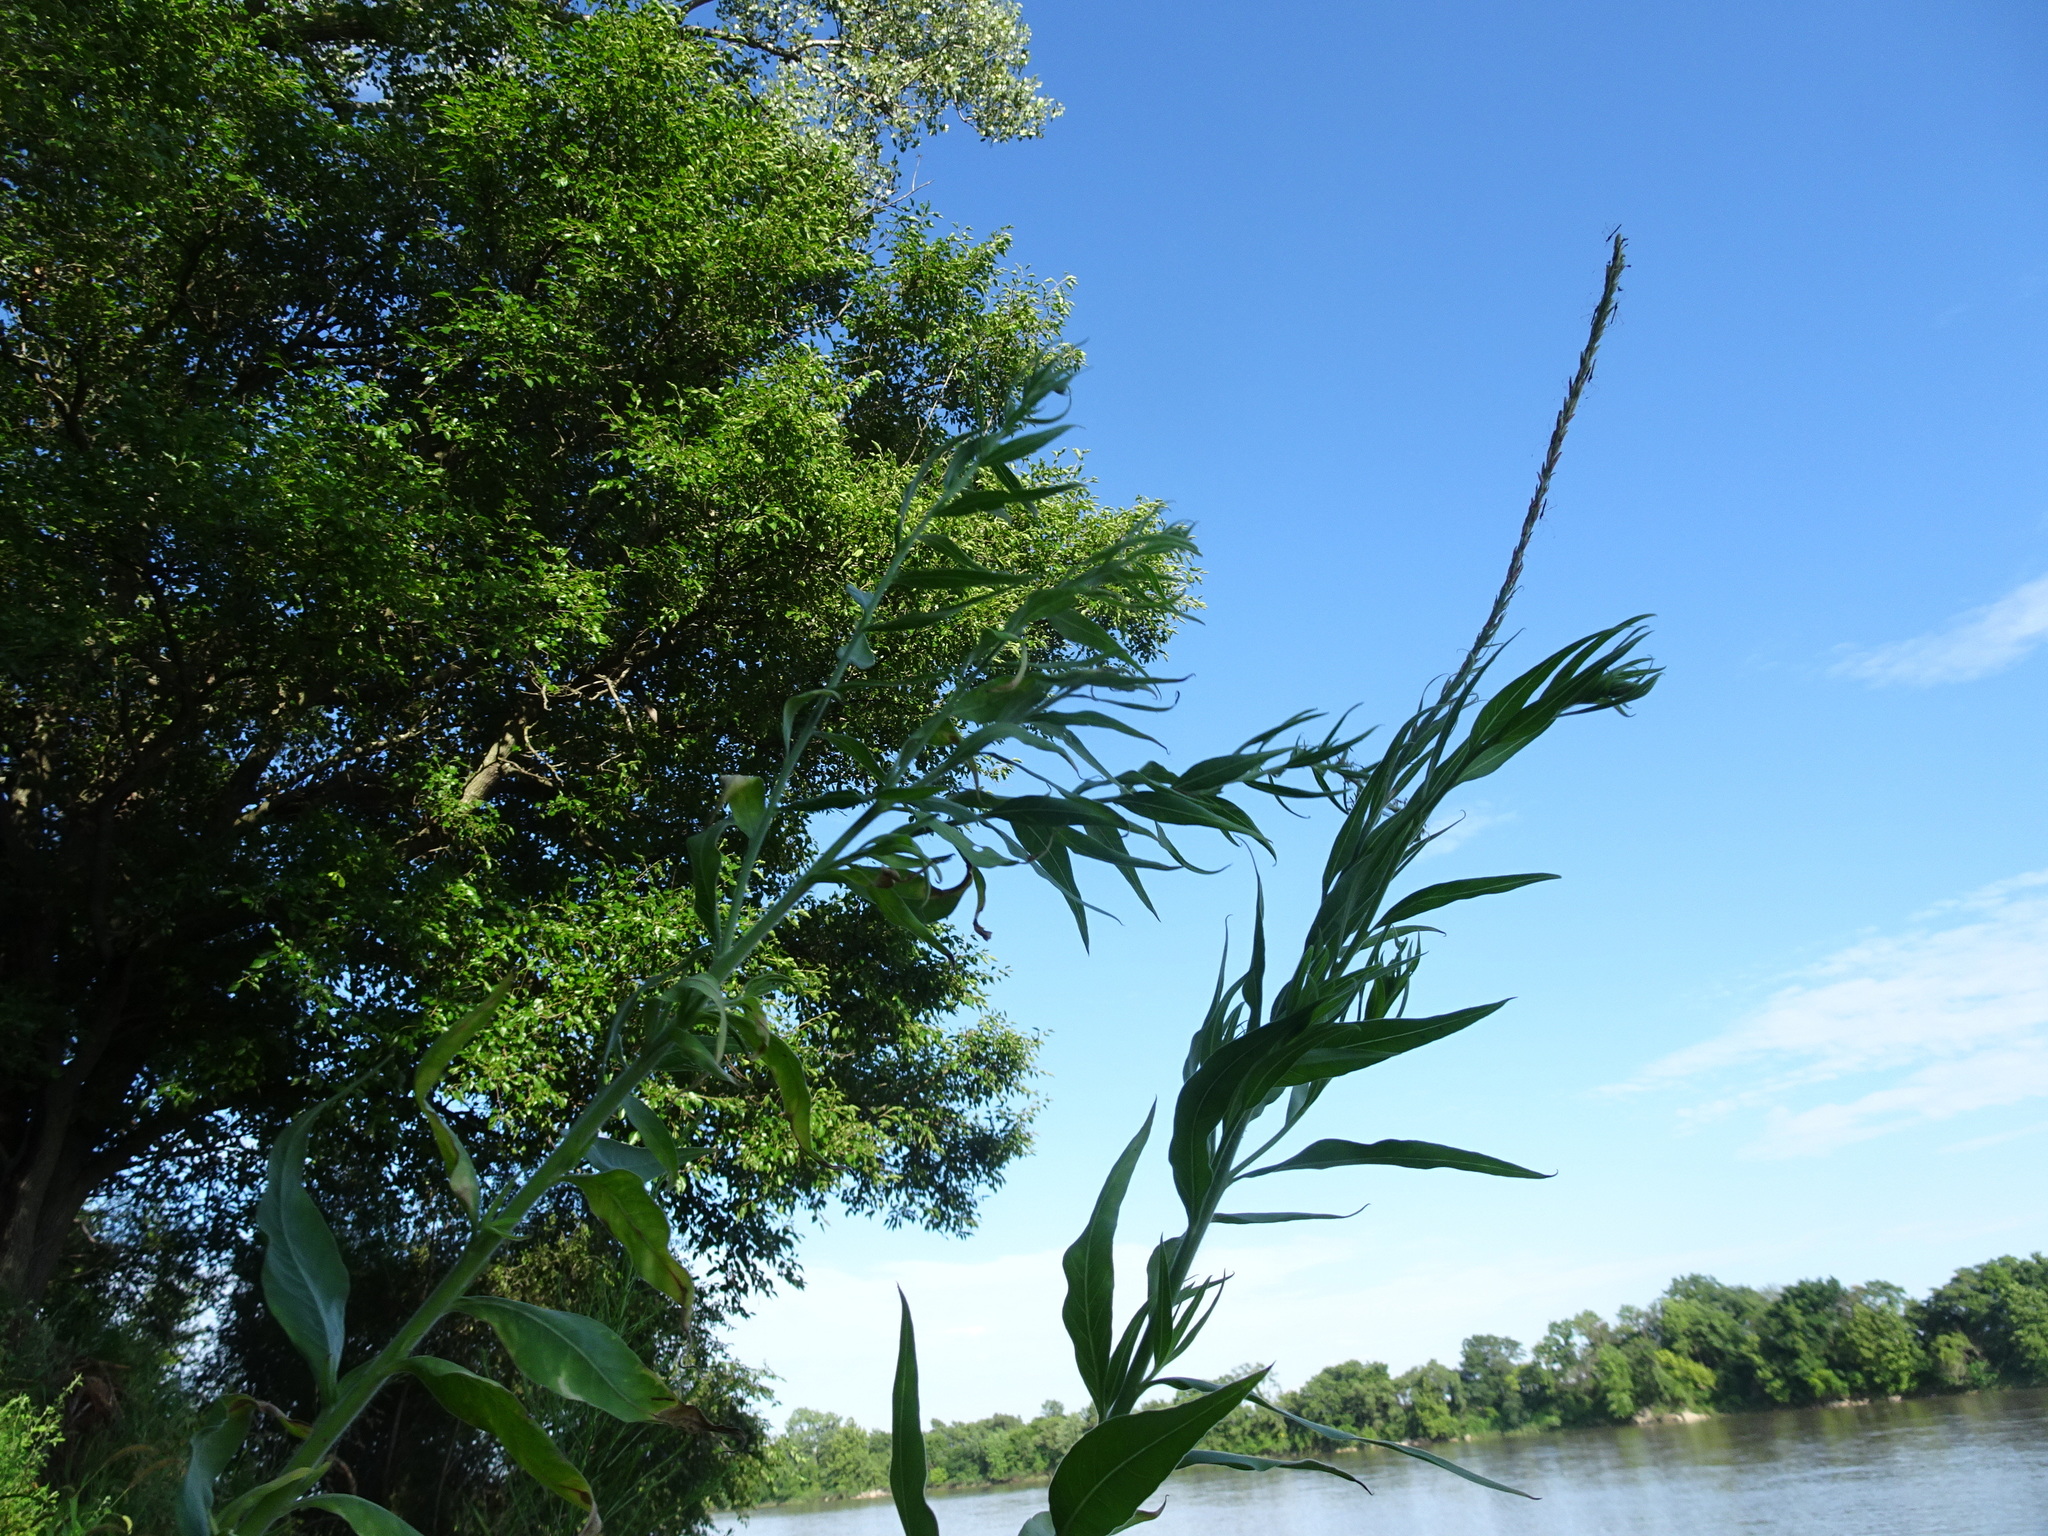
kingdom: Plantae
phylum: Tracheophyta
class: Magnoliopsida
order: Myrtales
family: Onagraceae
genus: Oenothera
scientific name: Oenothera curtiflora
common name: Velvetweed
